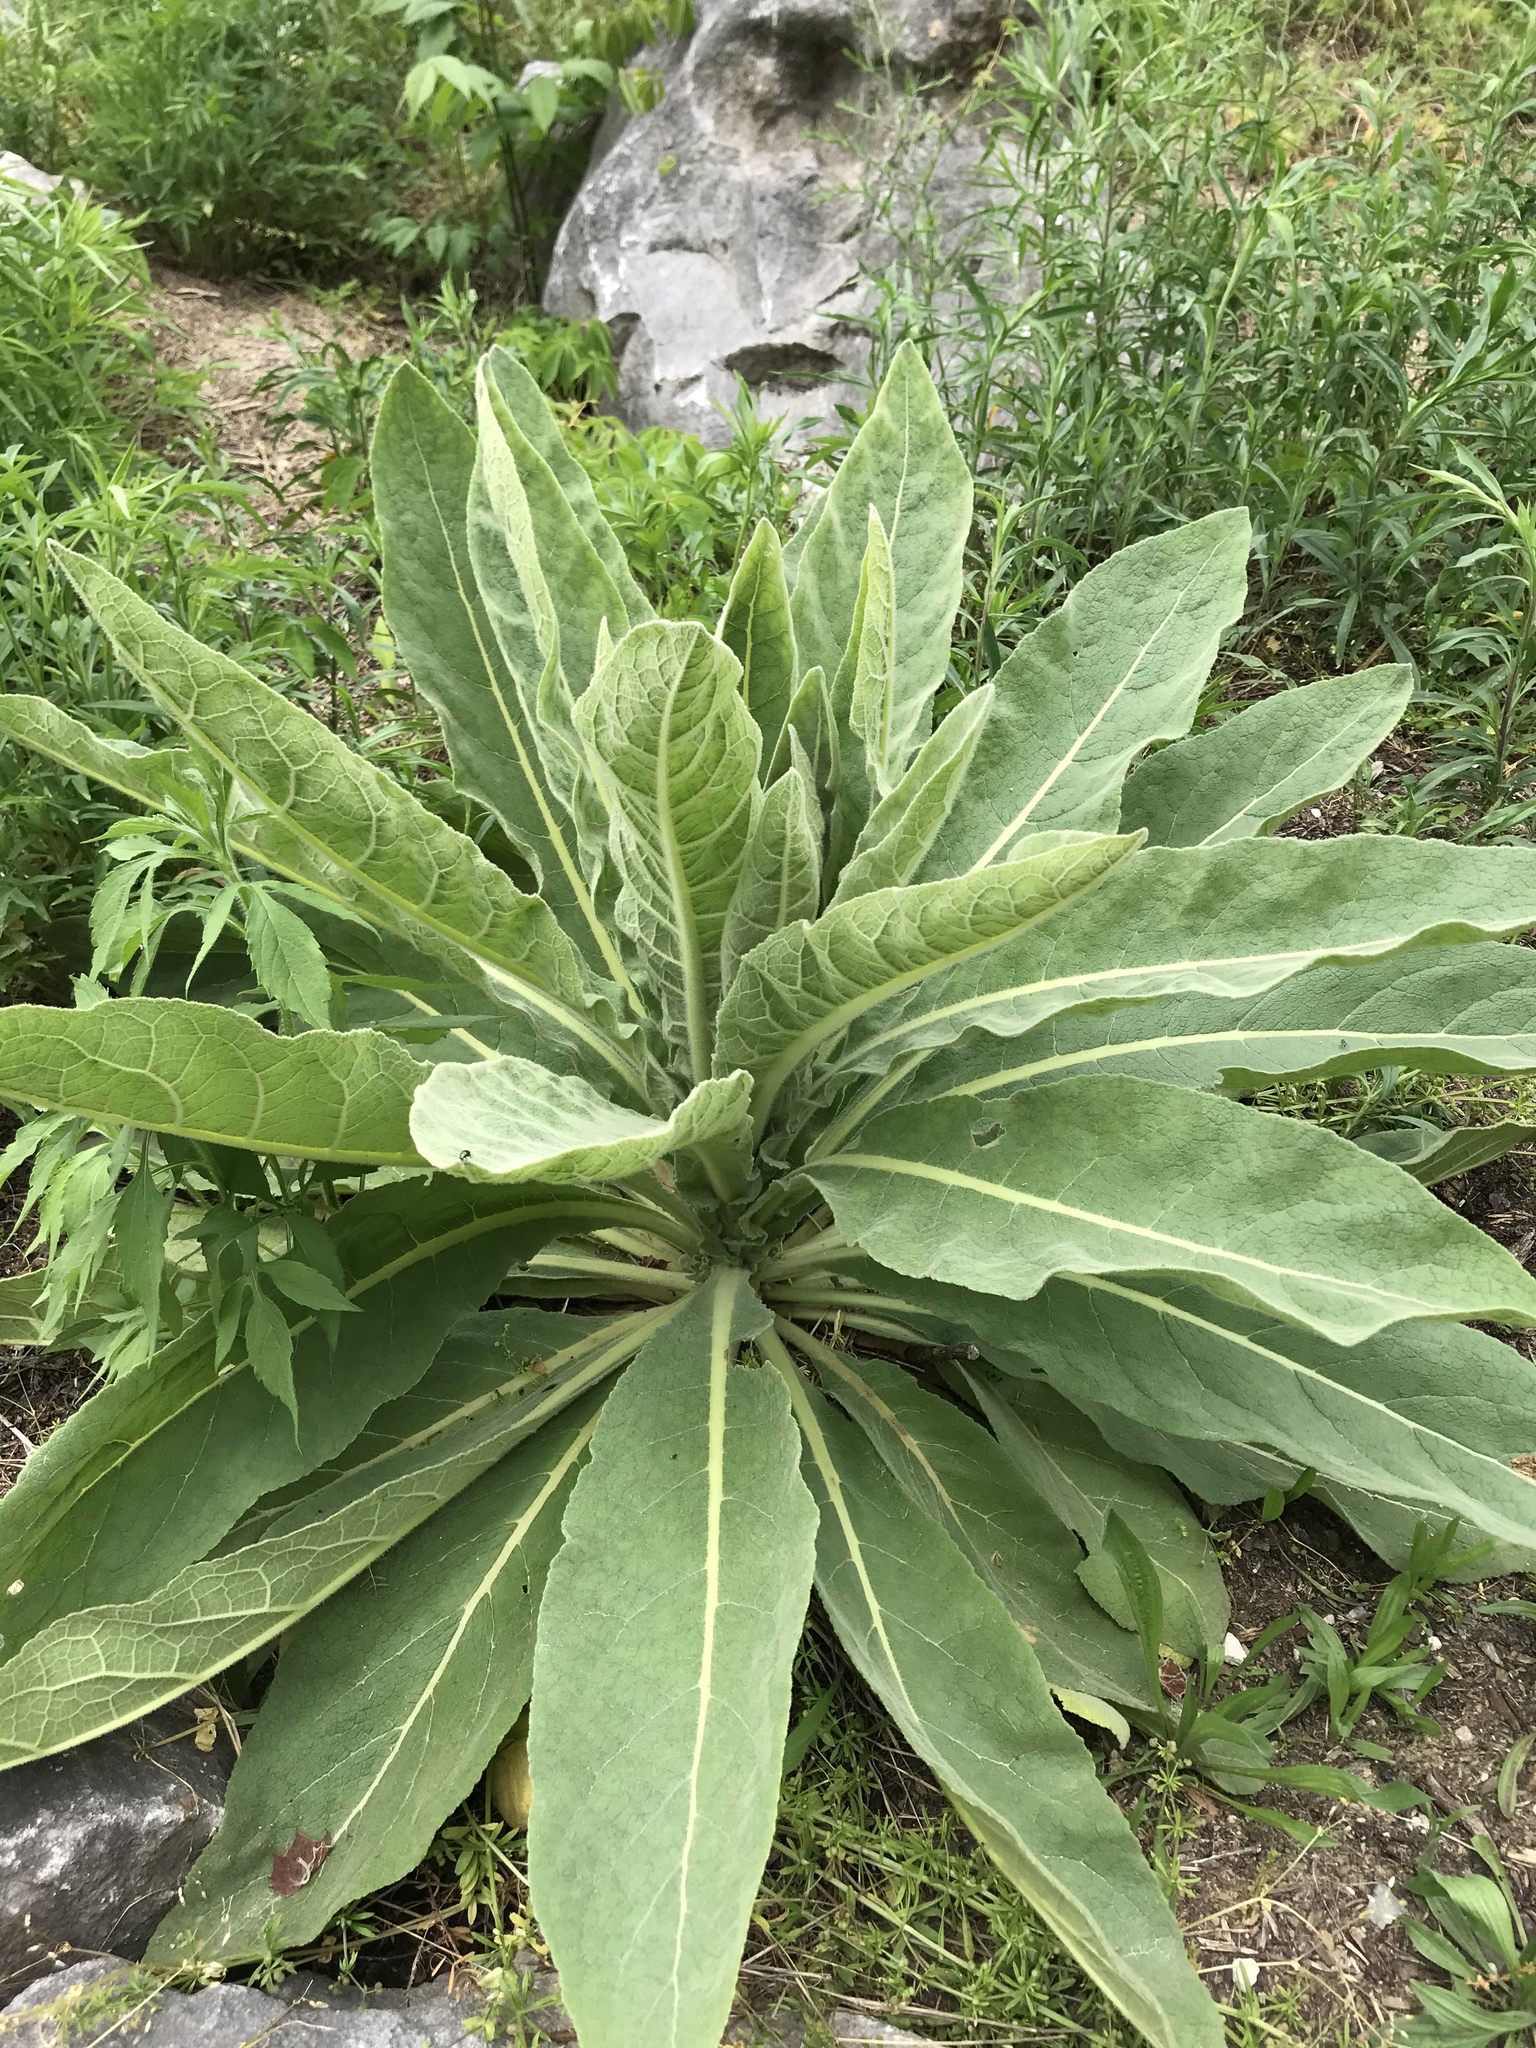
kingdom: Plantae
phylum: Tracheophyta
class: Magnoliopsida
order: Lamiales
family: Scrophulariaceae
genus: Verbascum
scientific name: Verbascum thapsus
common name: Common mullein
